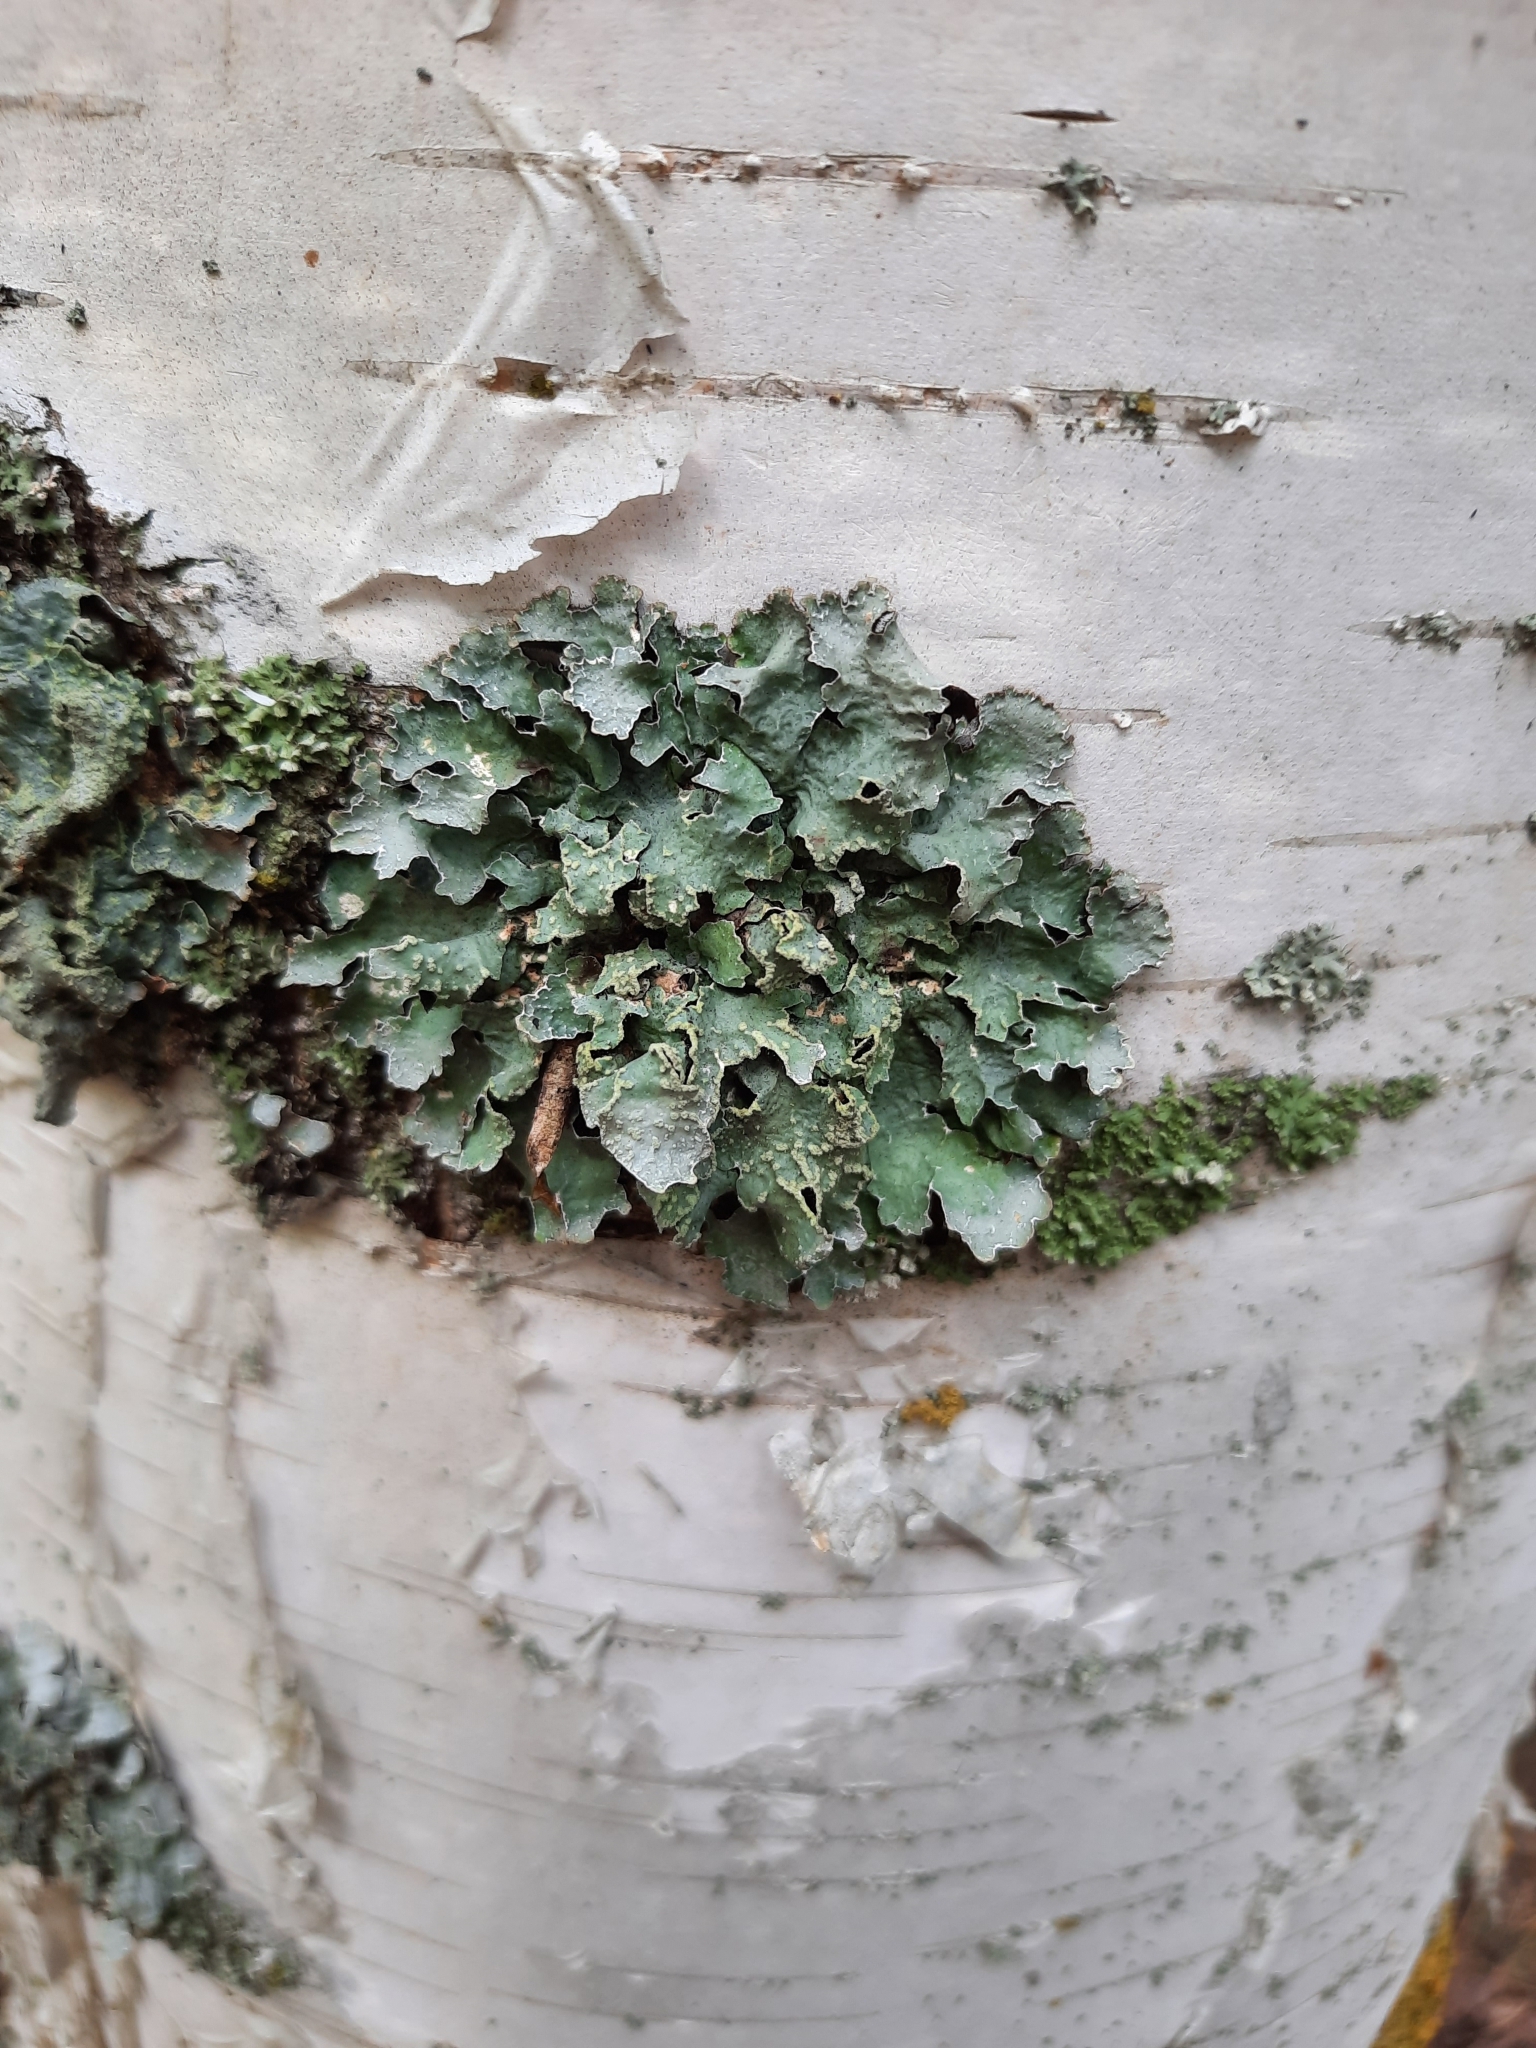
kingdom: Fungi
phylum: Ascomycota
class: Lecanoromycetes
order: Lecanorales
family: Parmeliaceae
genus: Parmelia
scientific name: Parmelia sulcata
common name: Netted shield lichen
